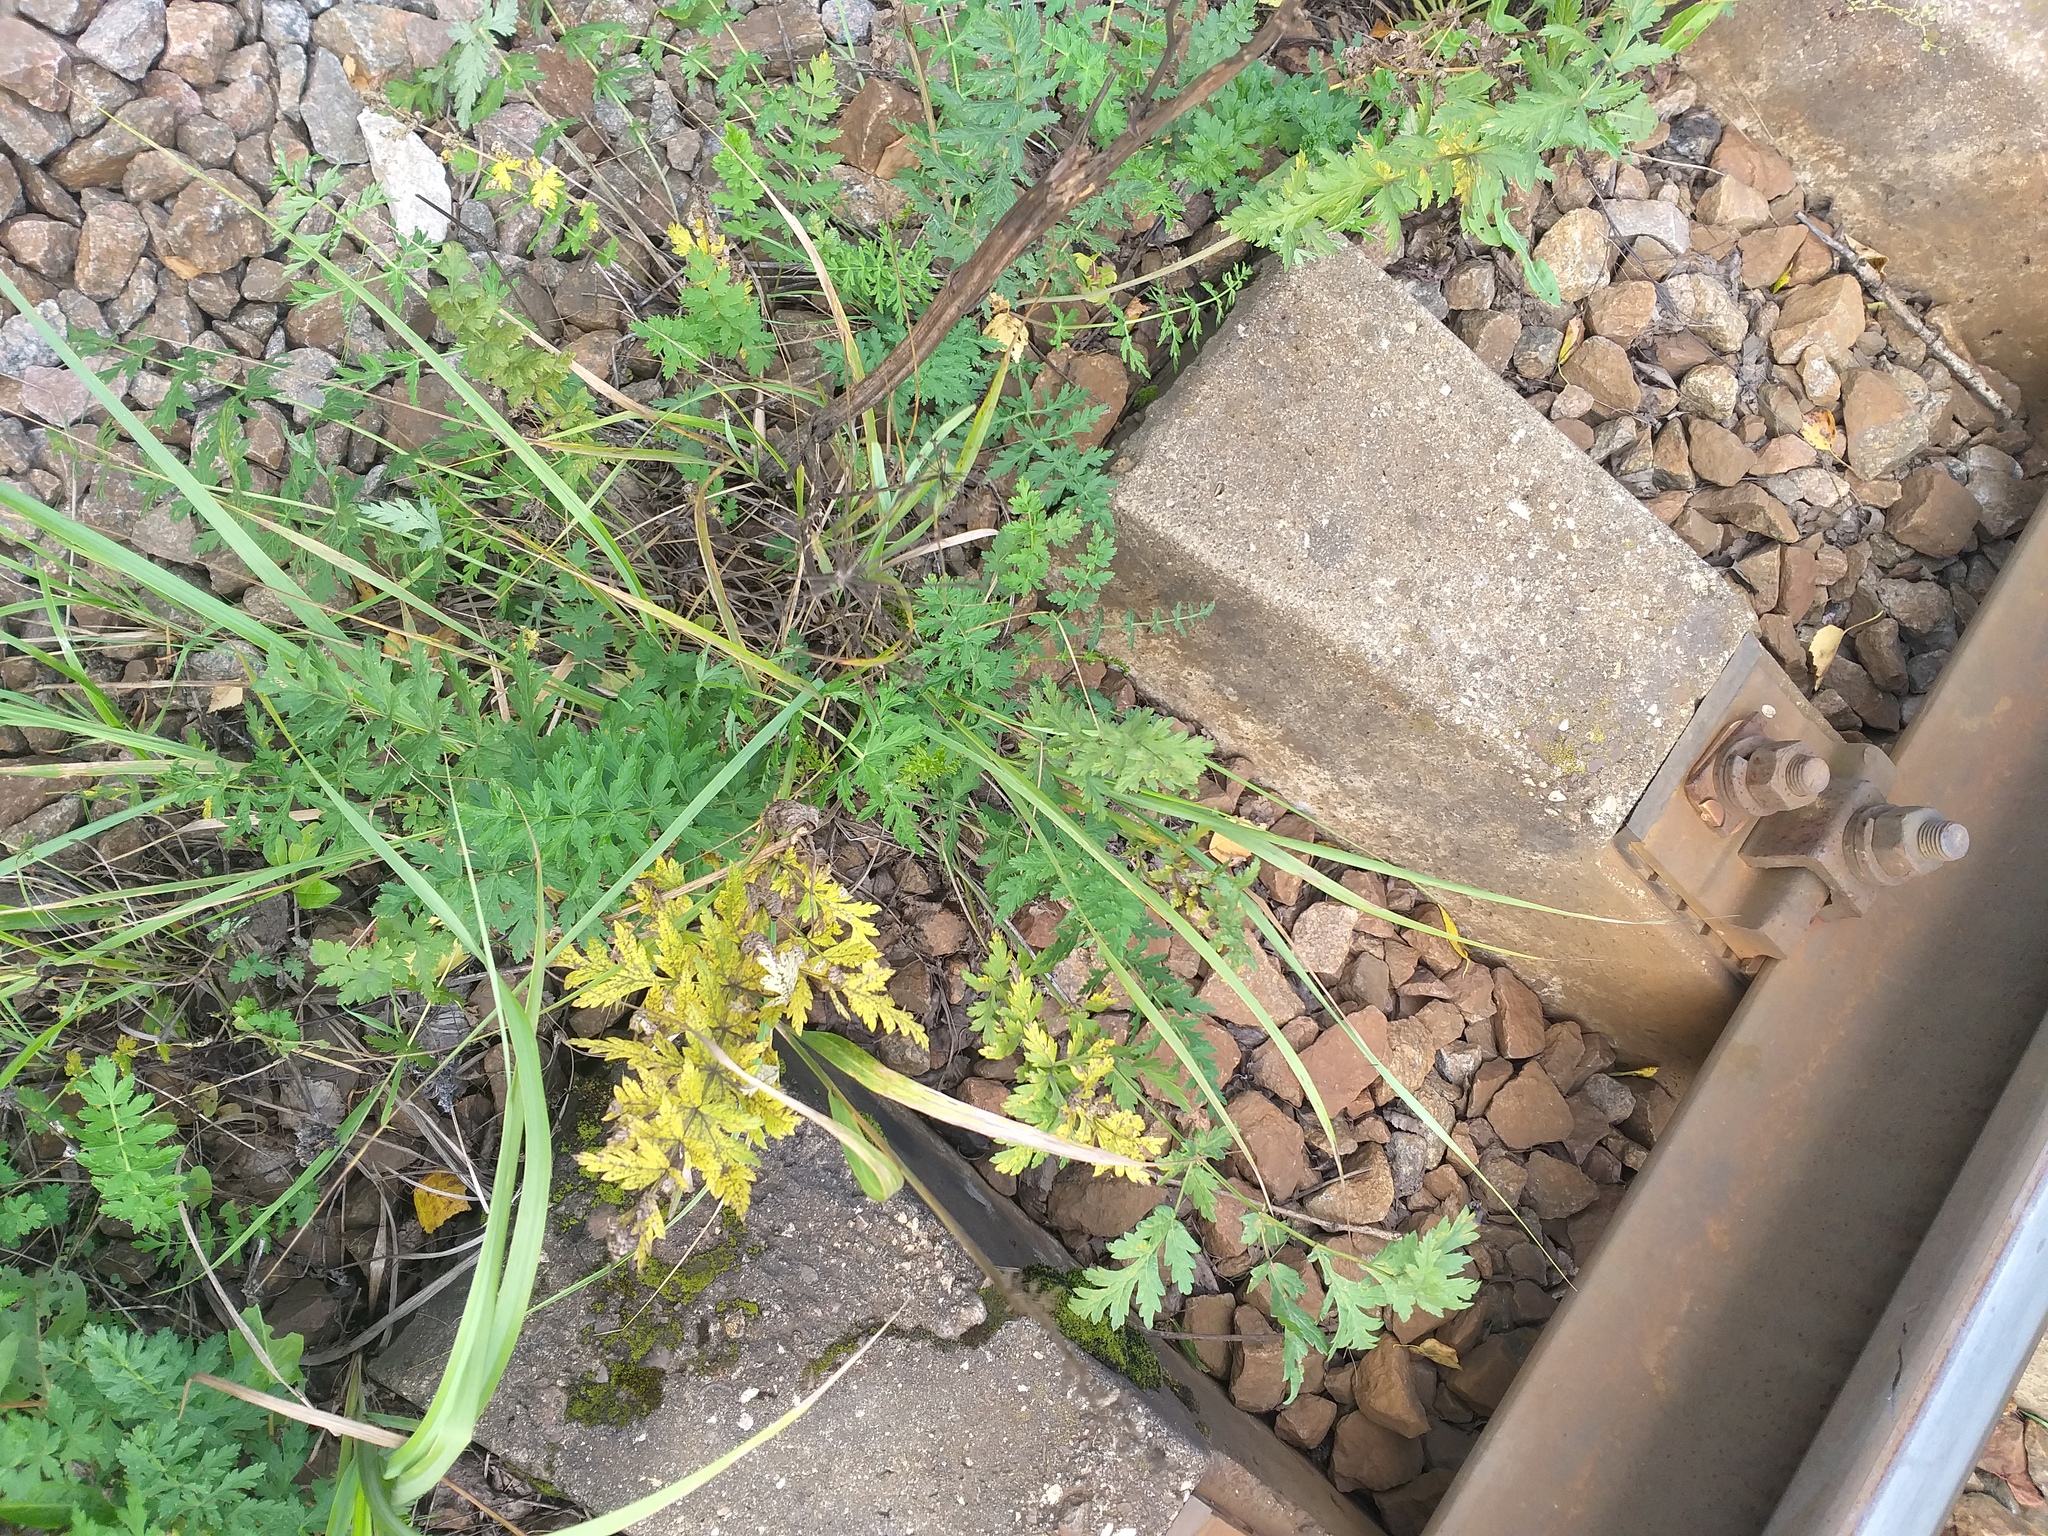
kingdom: Plantae
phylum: Tracheophyta
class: Magnoliopsida
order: Apiales
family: Apiaceae
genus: Seseli
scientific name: Seseli libanotis
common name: Mooncarrot
